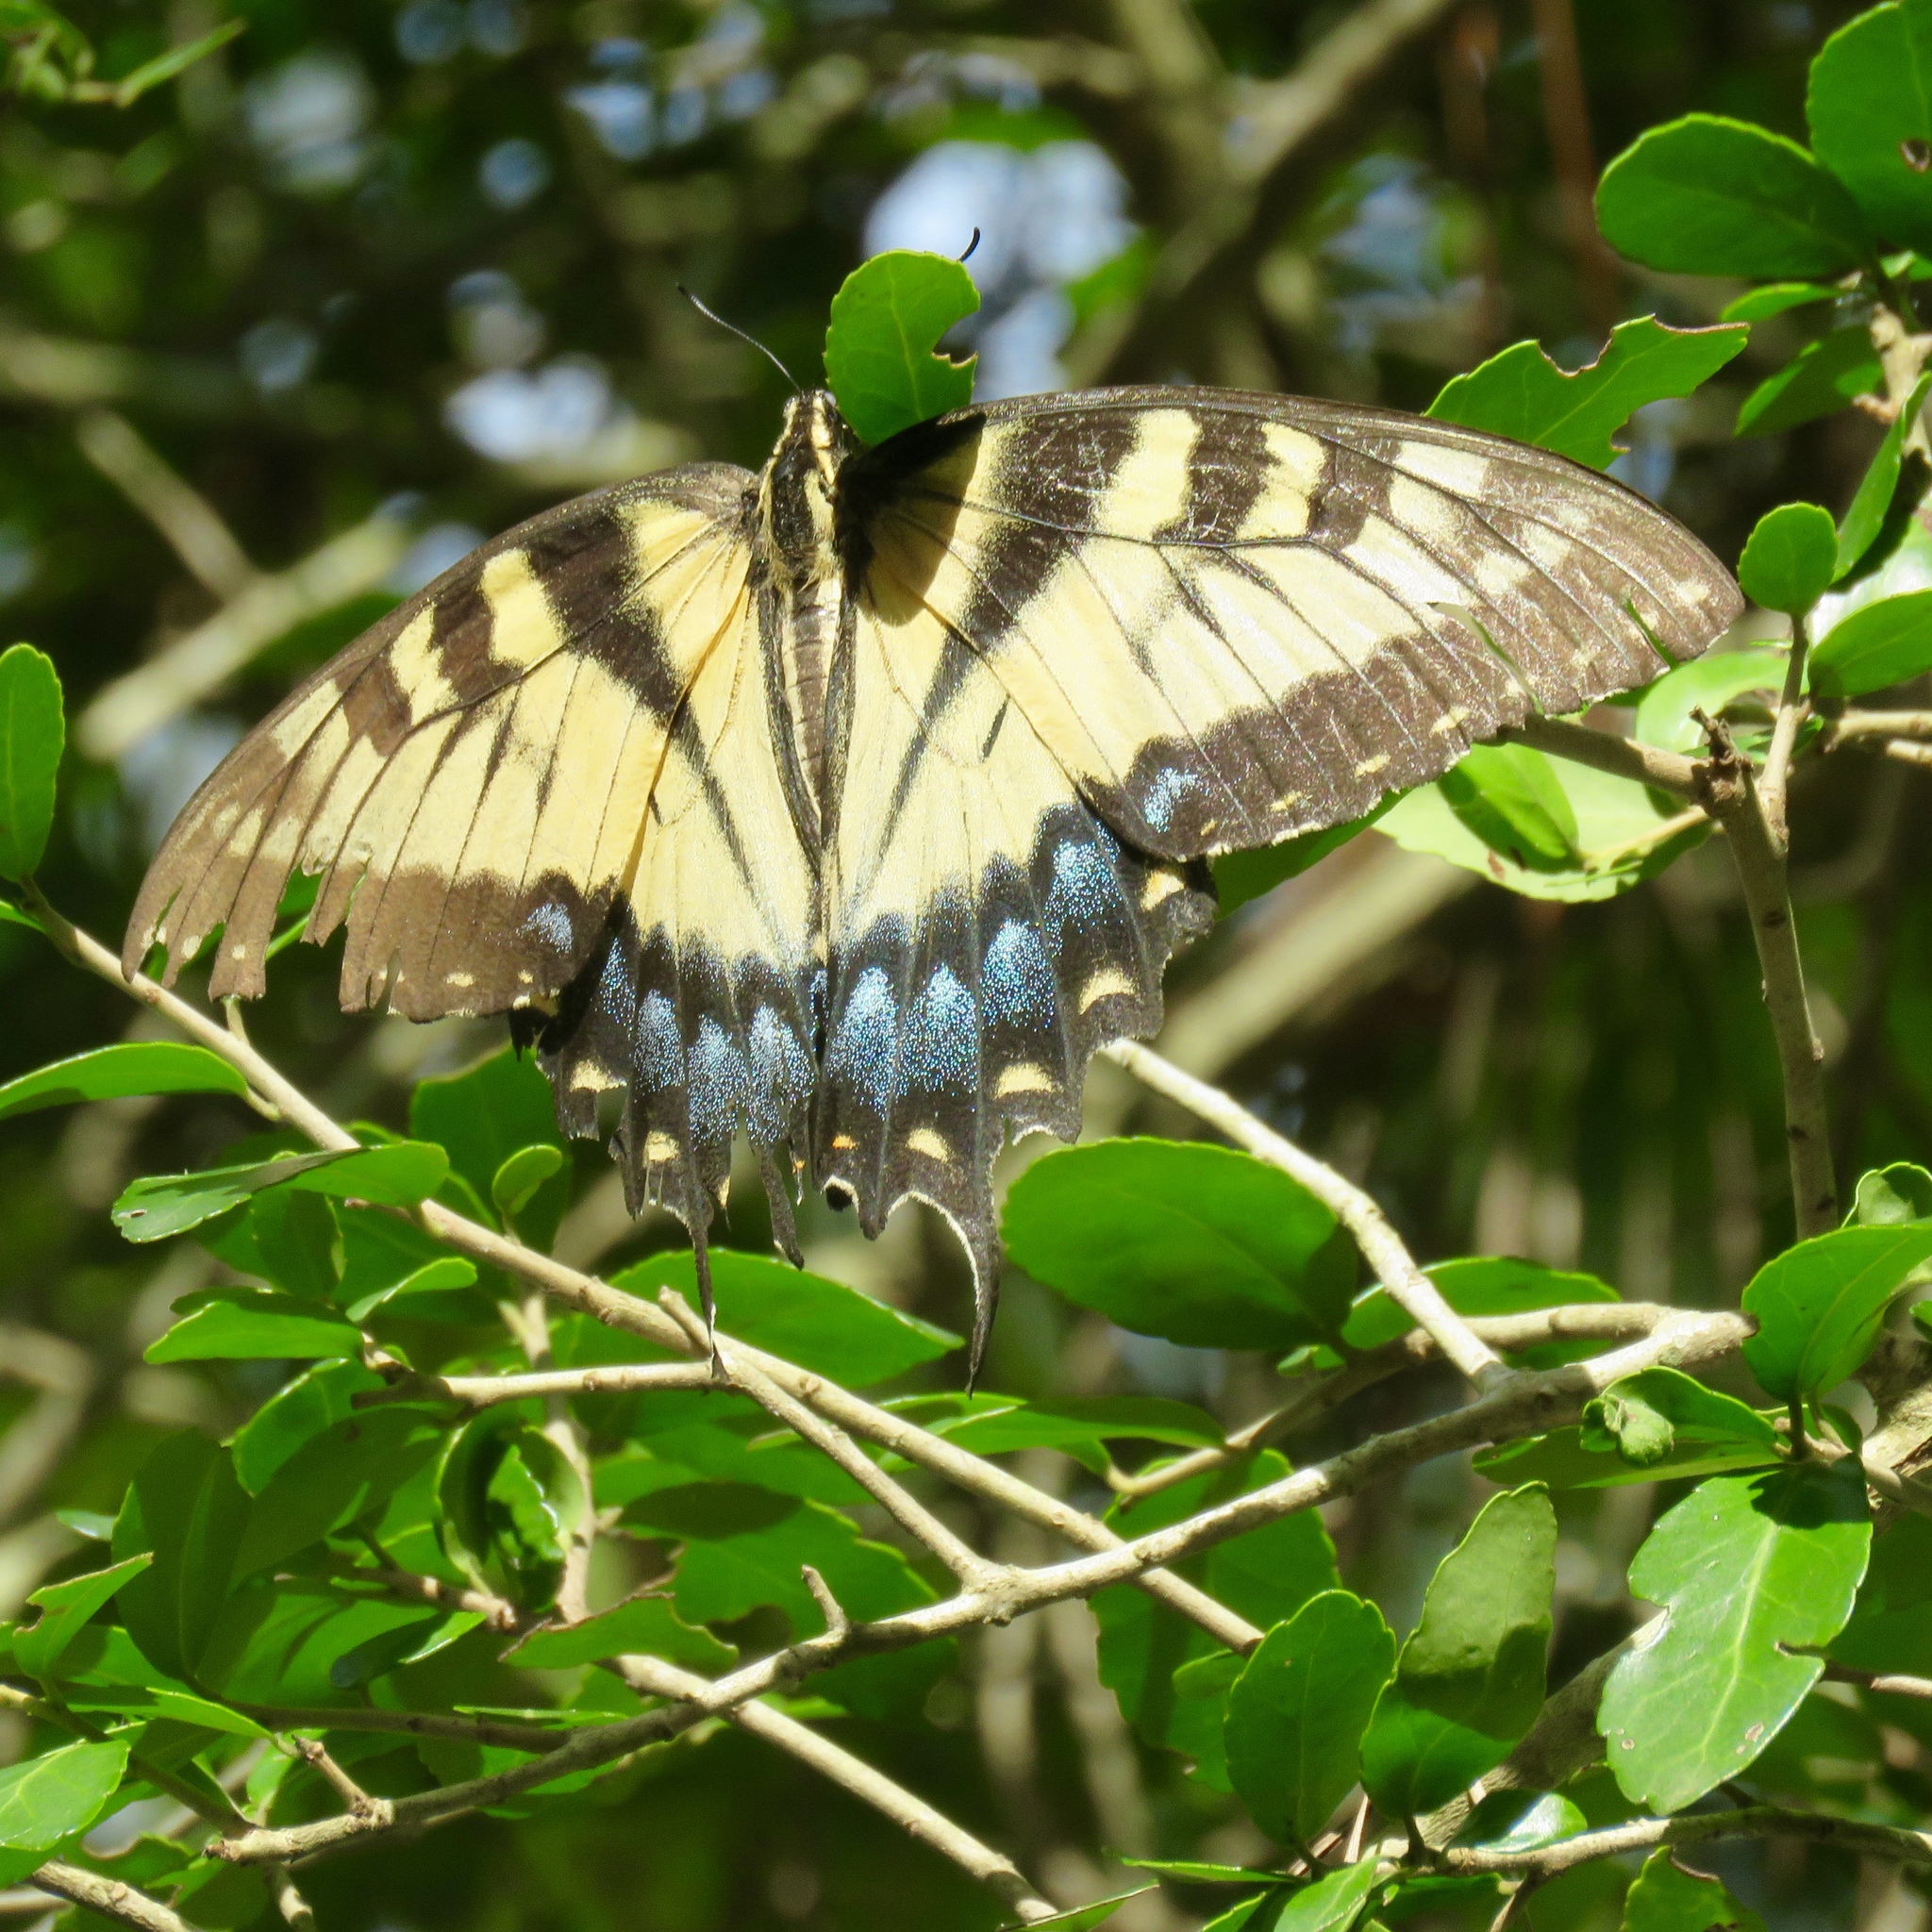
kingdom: Animalia
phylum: Arthropoda
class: Insecta
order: Lepidoptera
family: Papilionidae
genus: Papilio
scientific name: Papilio glaucus
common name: Tiger swallowtail
